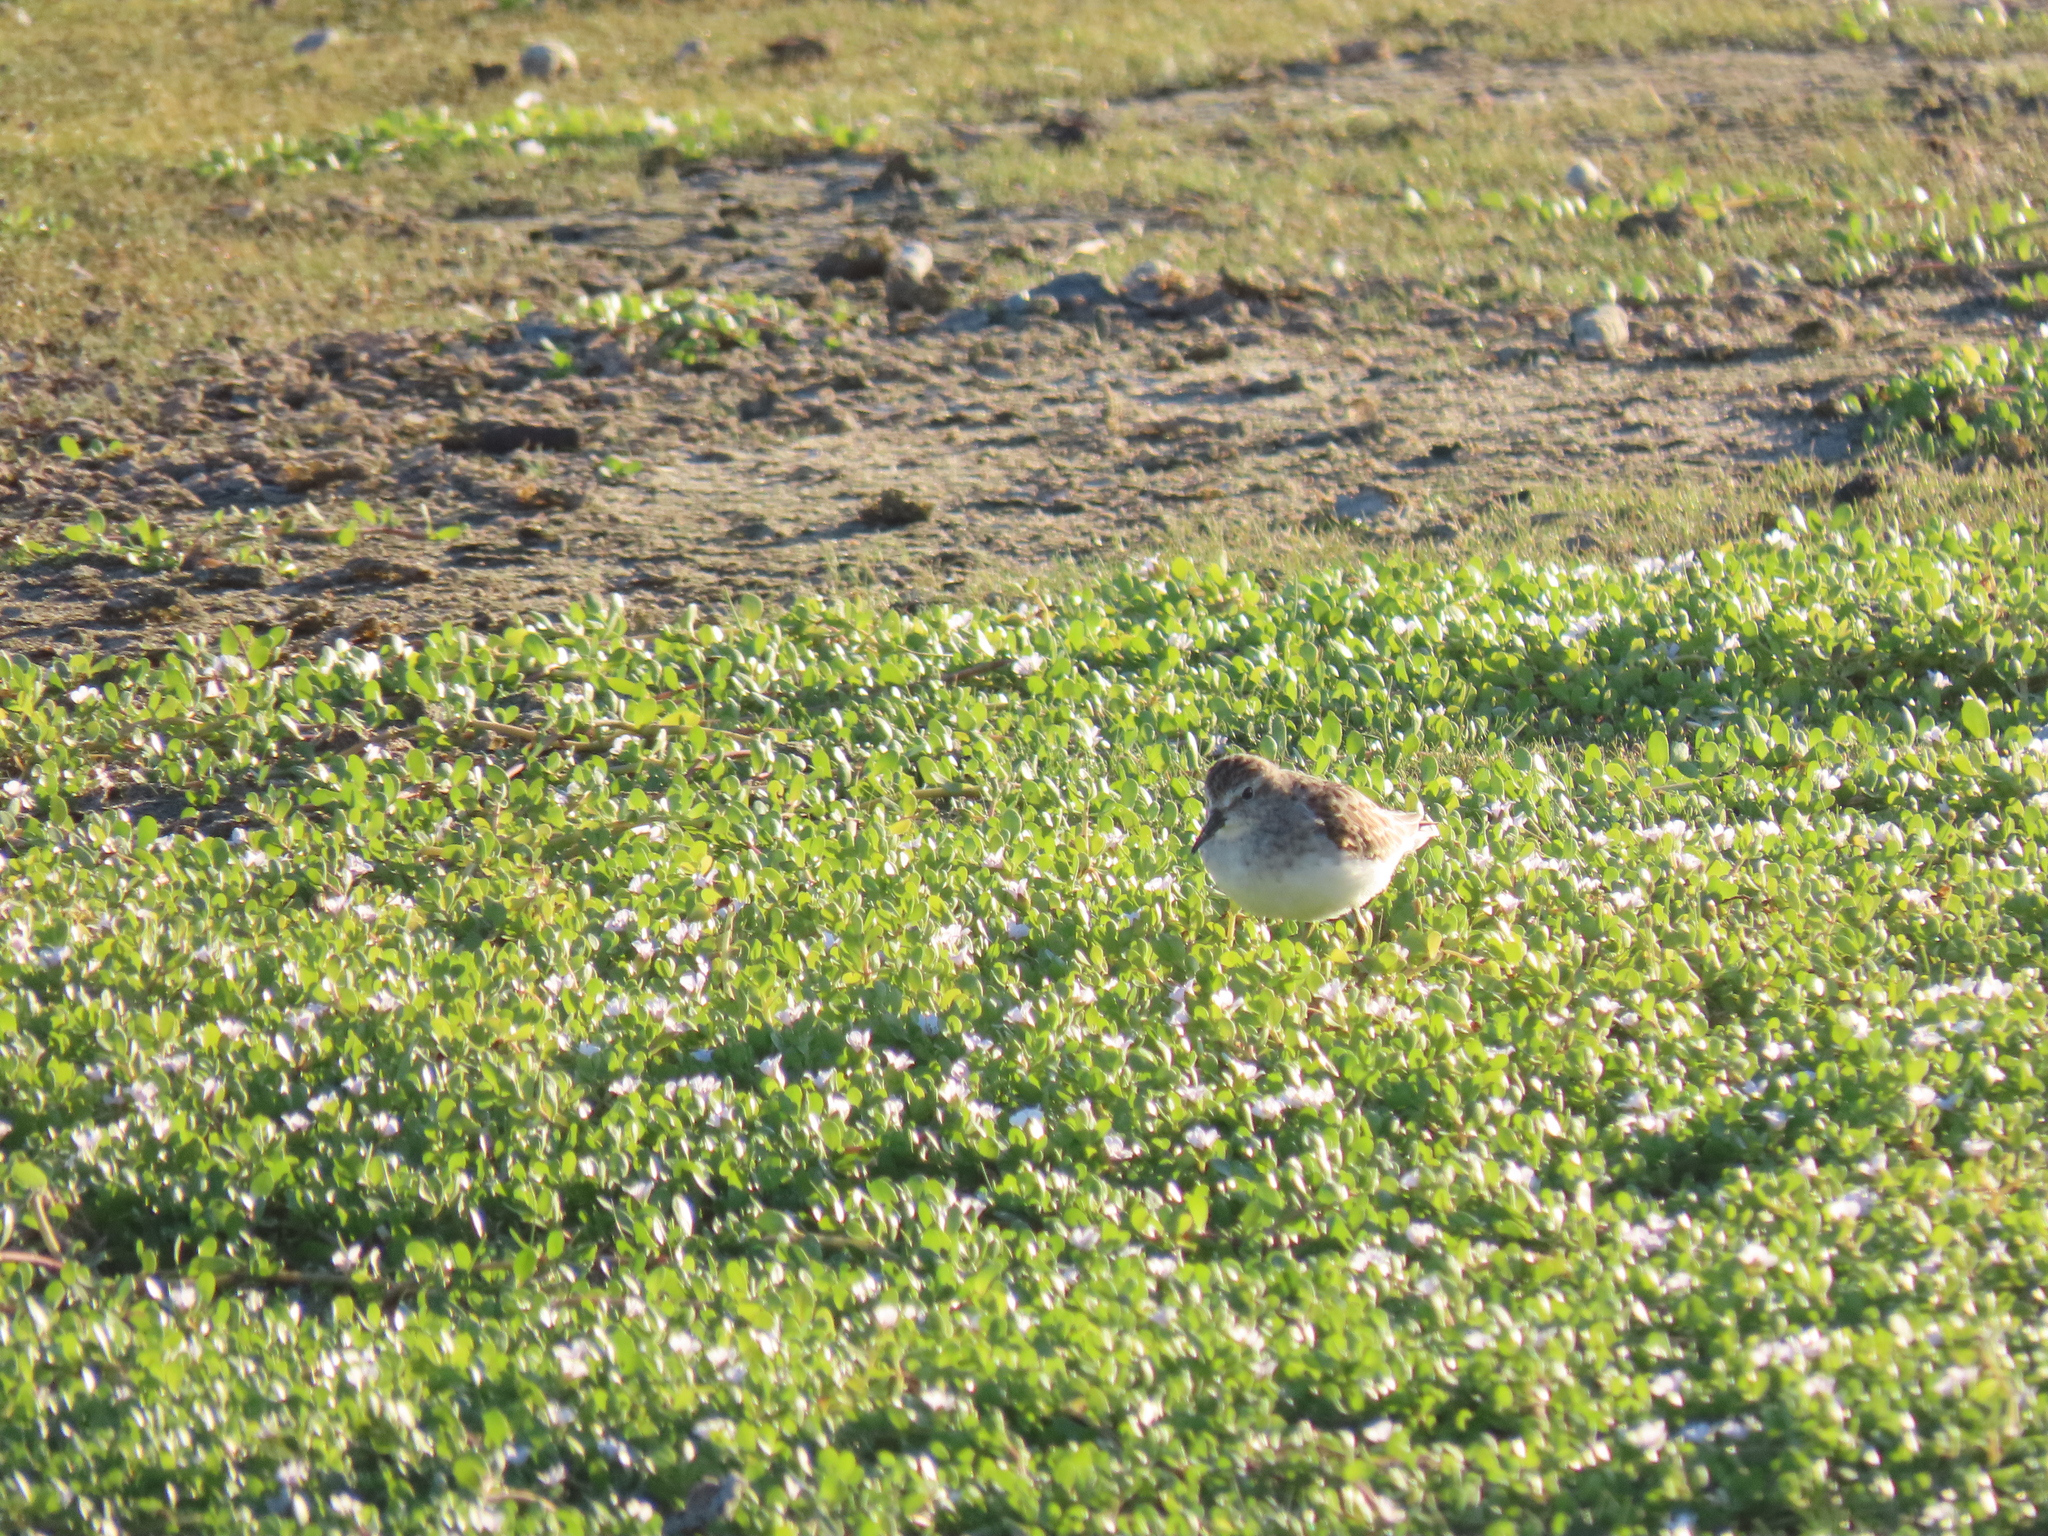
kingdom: Animalia
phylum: Chordata
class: Aves
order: Charadriiformes
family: Scolopacidae
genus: Calidris
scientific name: Calidris minutilla
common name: Least sandpiper
